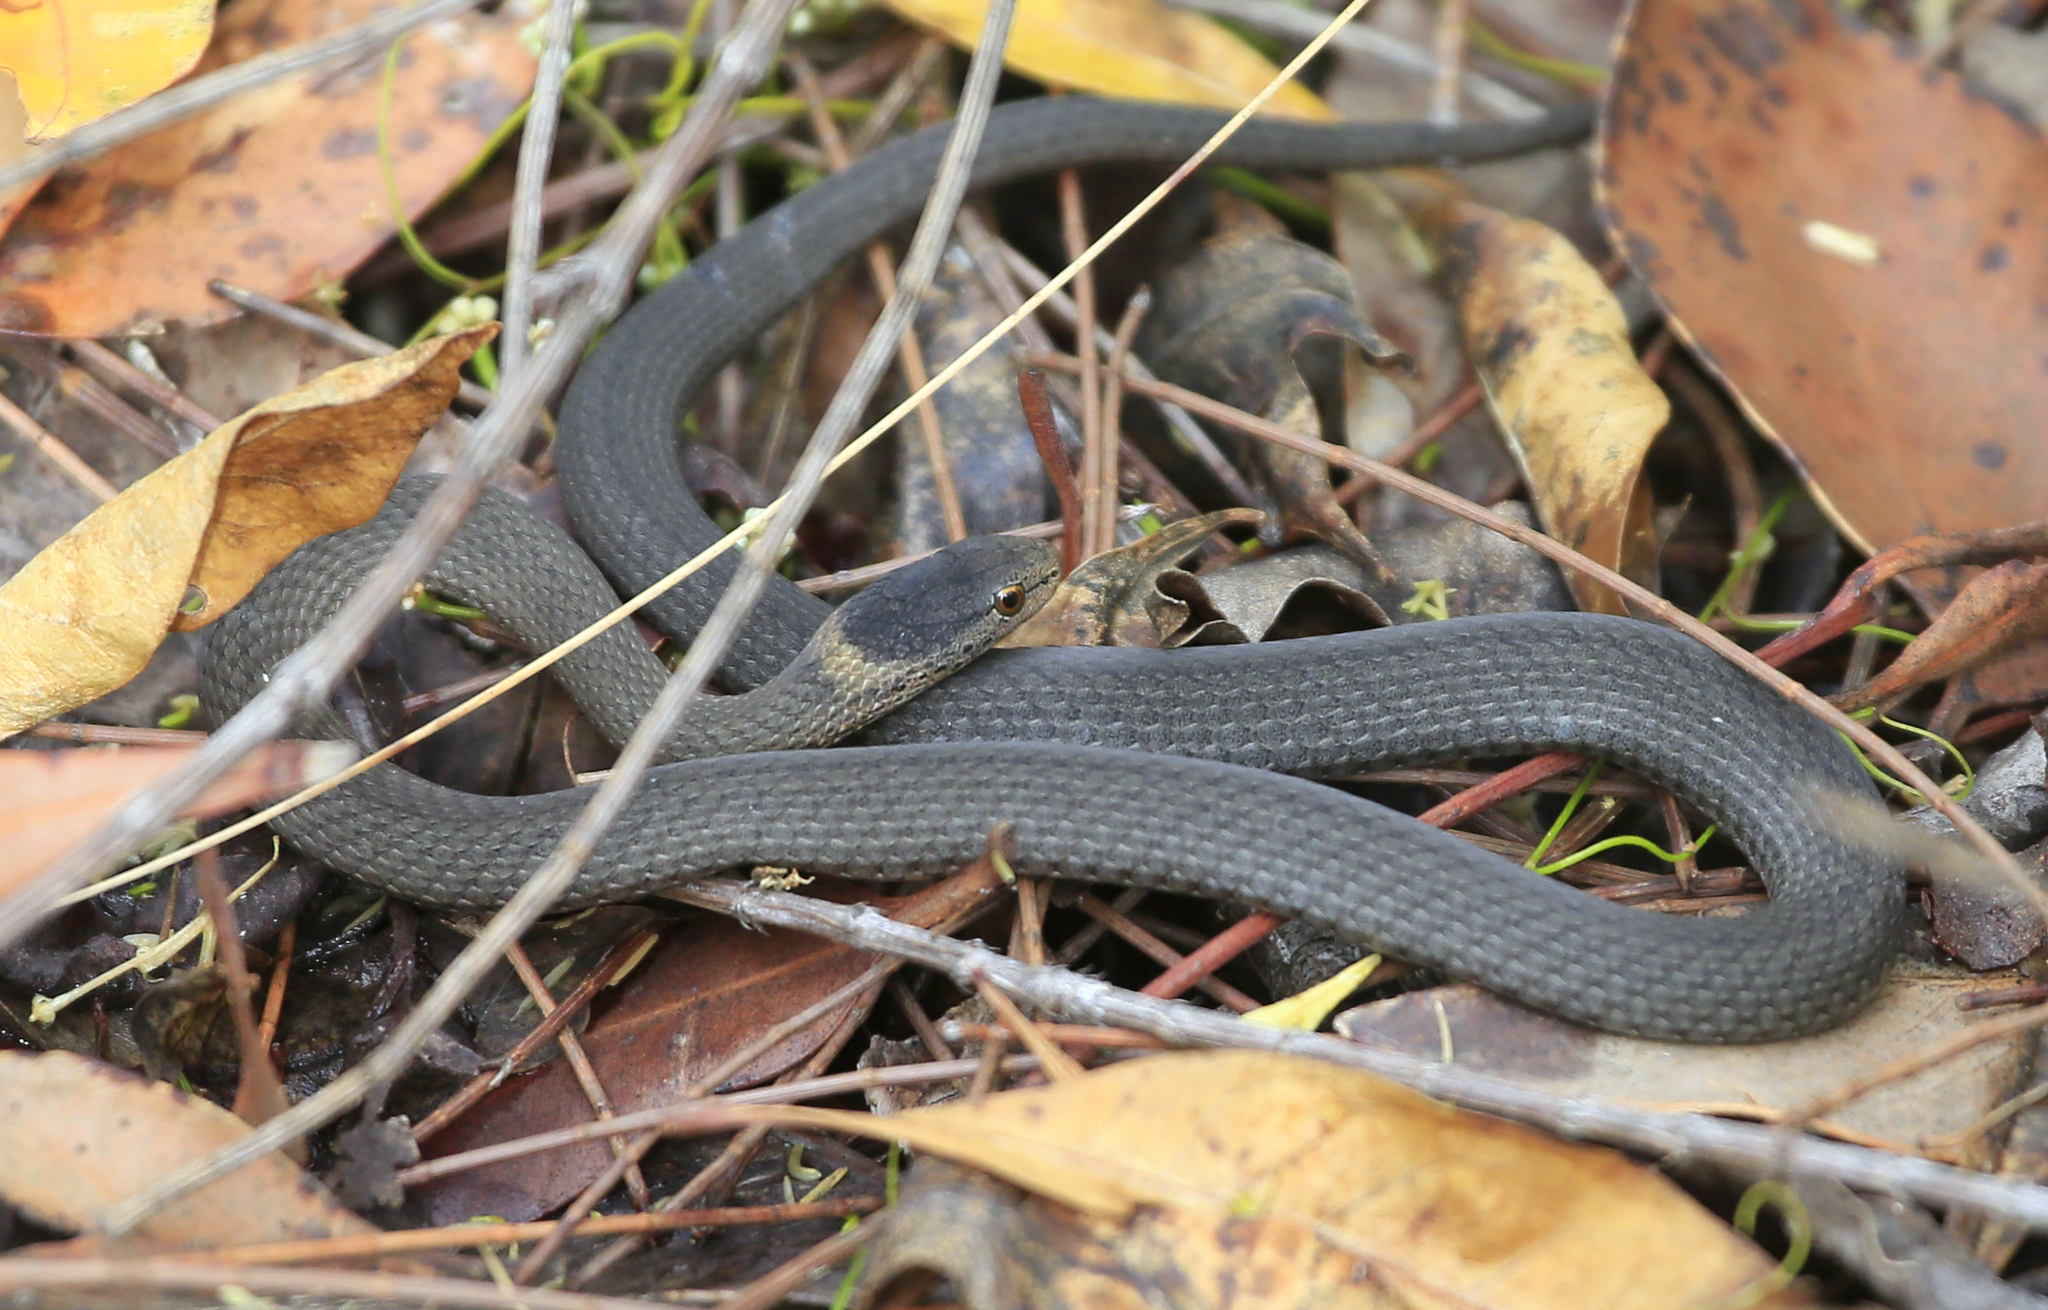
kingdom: Animalia
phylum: Chordata
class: Squamata
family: Elapidae
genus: Drysdalia
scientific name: Drysdalia rhodogaster
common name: Mustard-bellied snake
